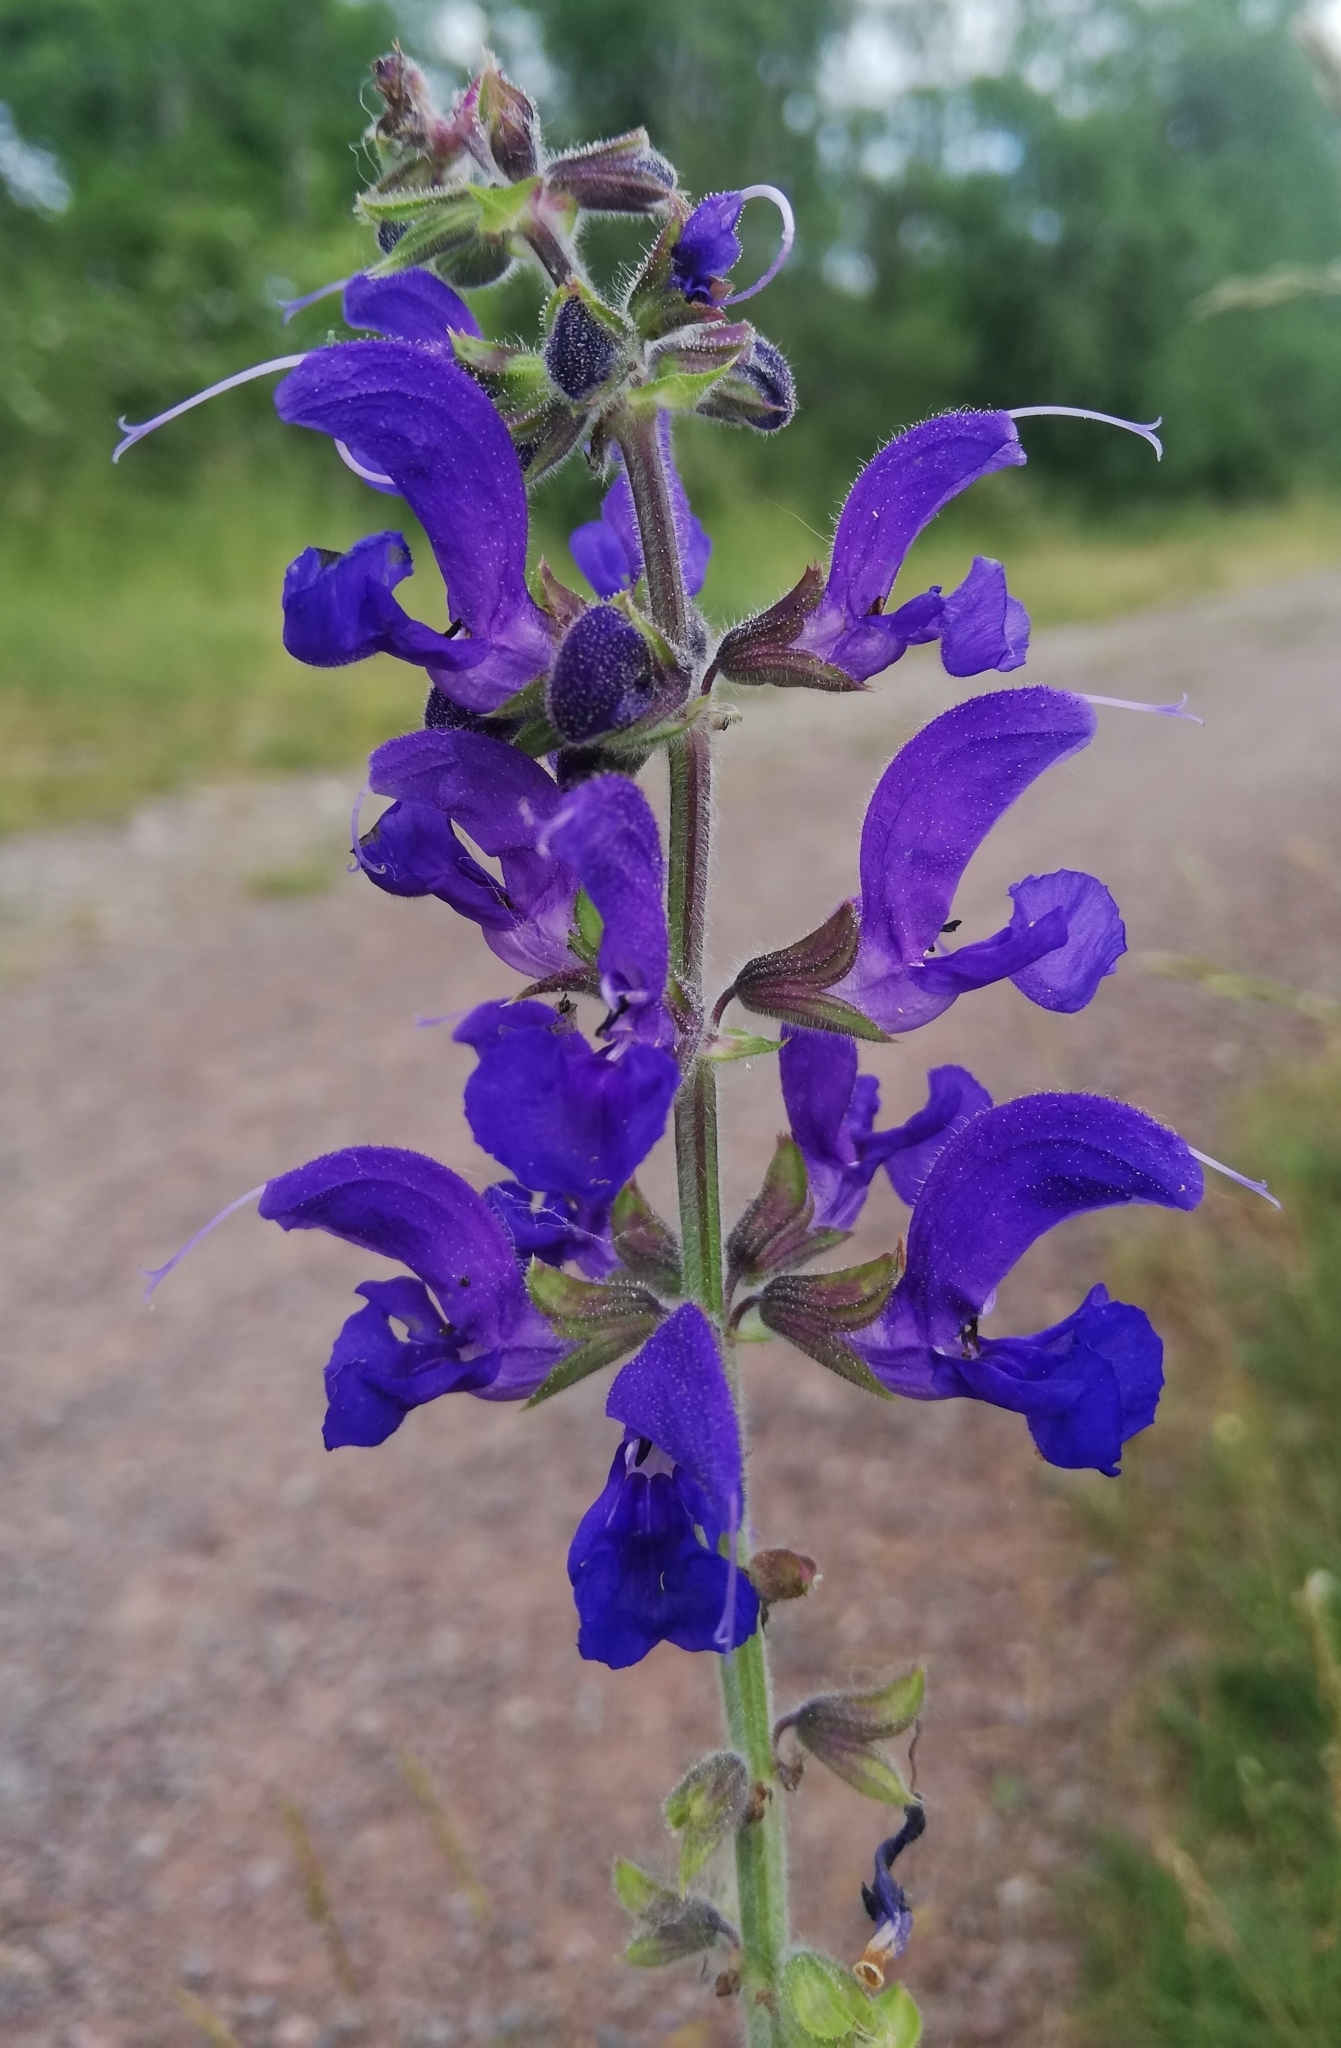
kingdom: Plantae
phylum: Tracheophyta
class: Magnoliopsida
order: Lamiales
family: Lamiaceae
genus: Salvia
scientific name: Salvia pratensis
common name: Meadow sage
